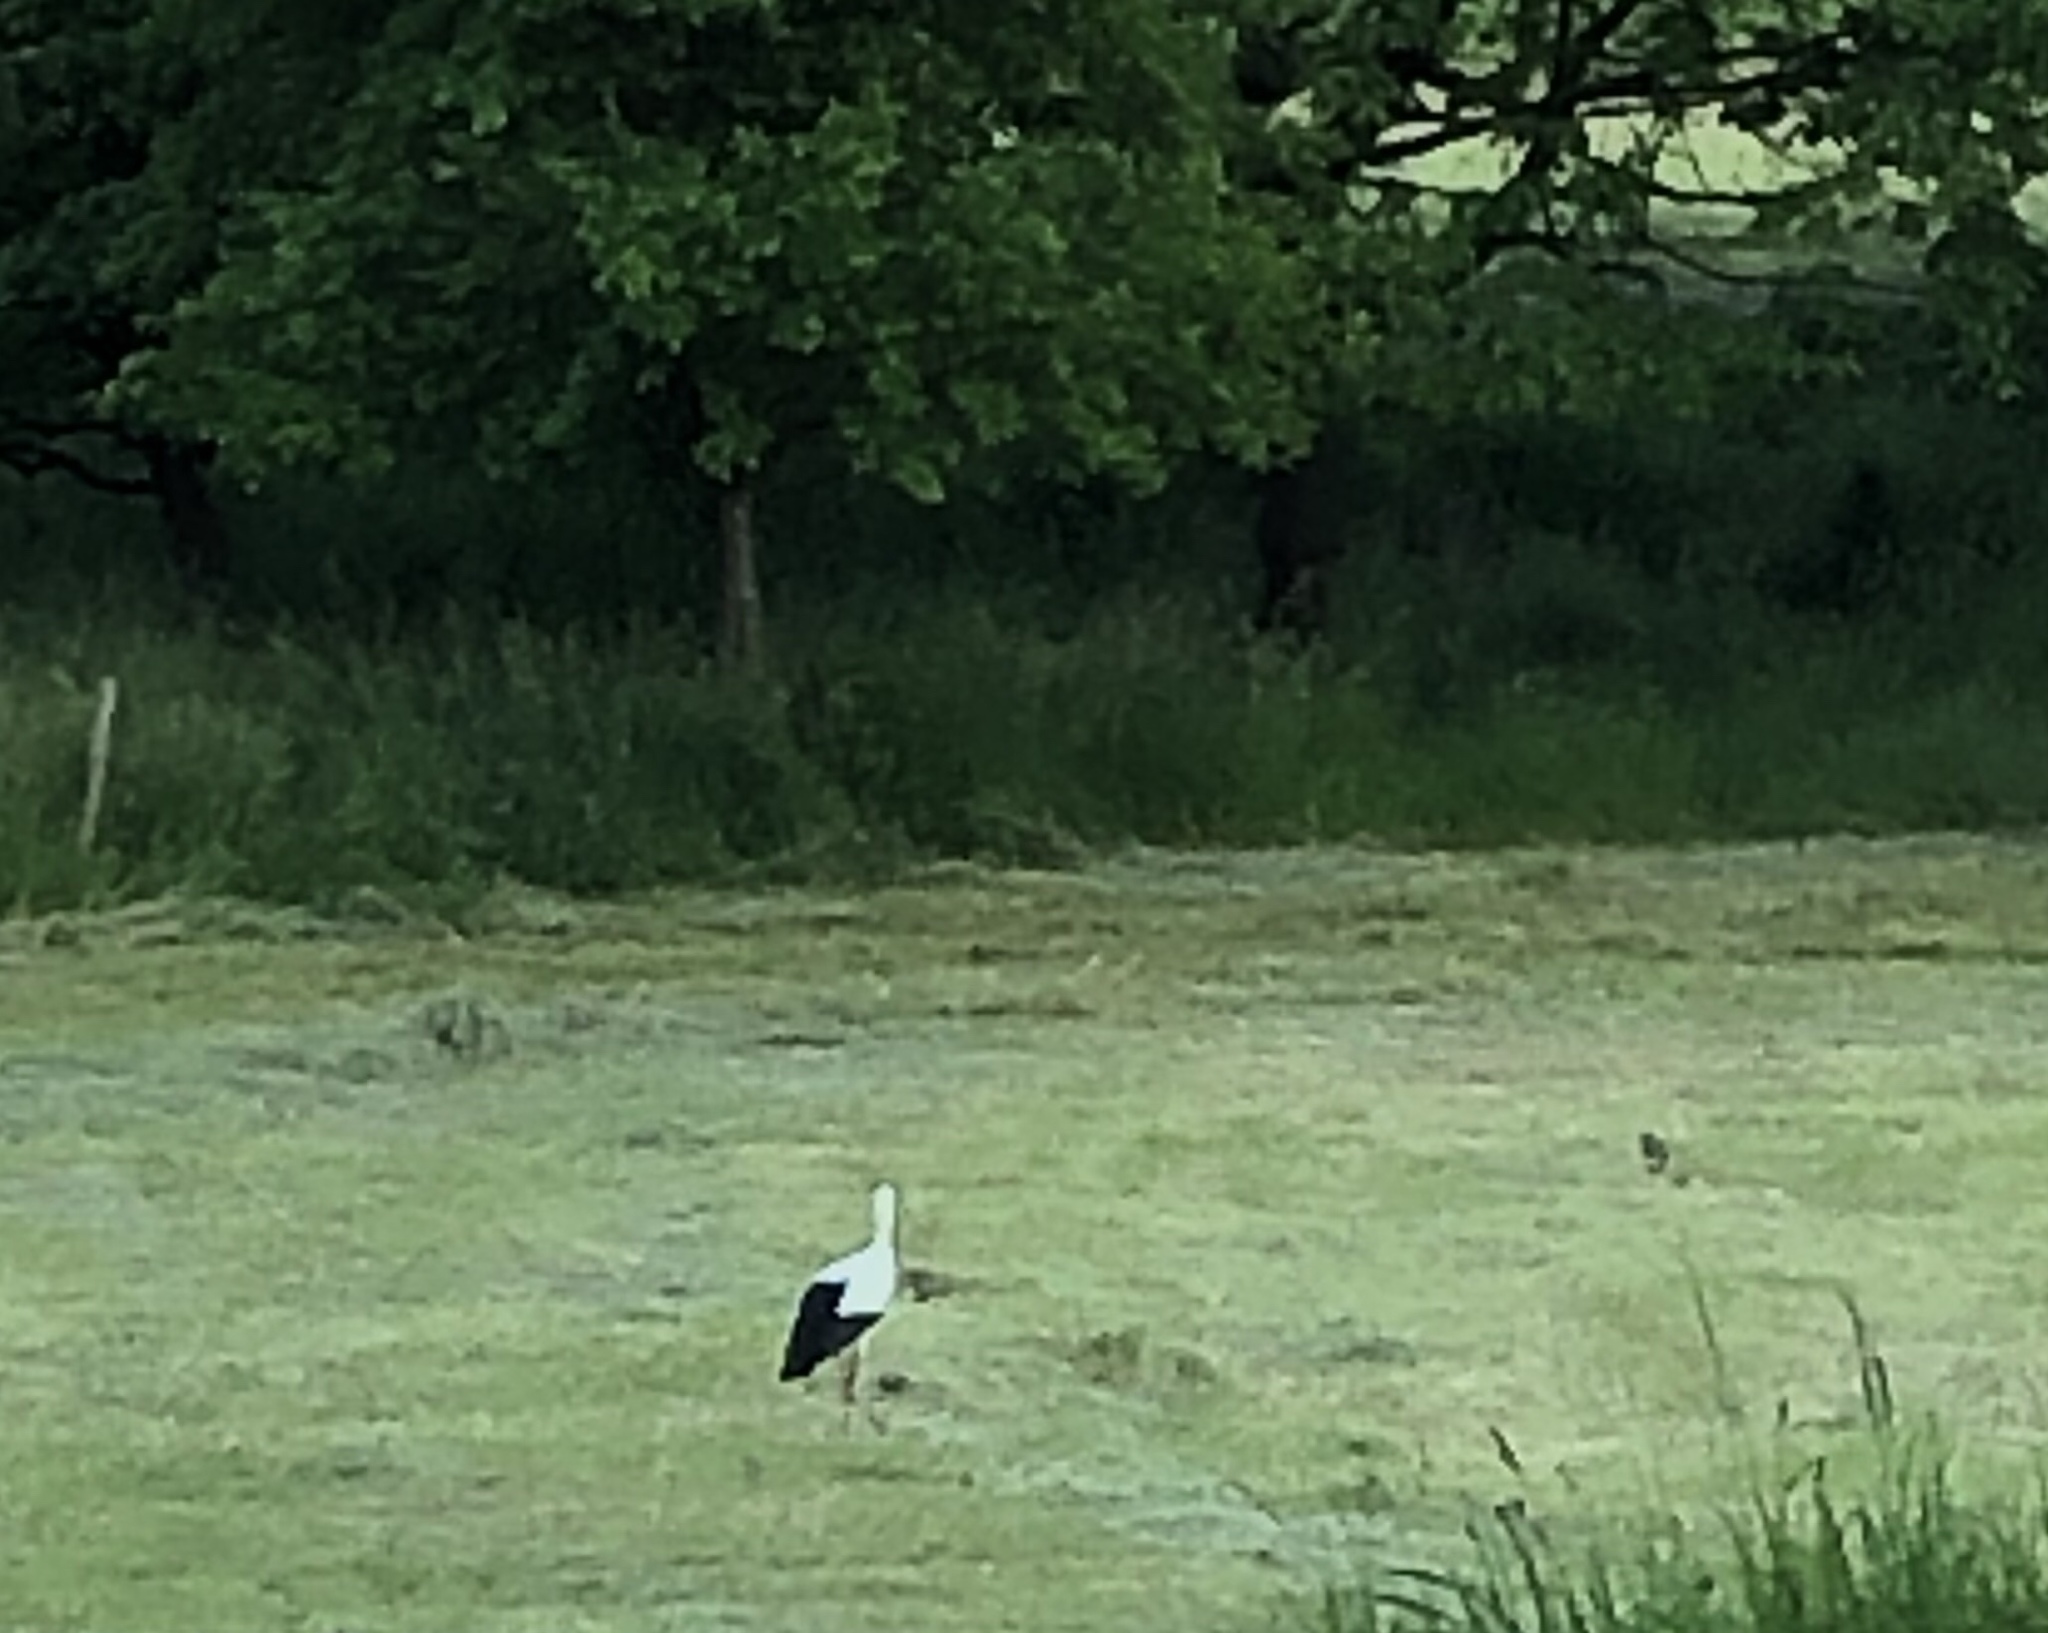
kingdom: Animalia
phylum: Chordata
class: Aves
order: Ciconiiformes
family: Ciconiidae
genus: Ciconia
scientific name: Ciconia ciconia
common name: White stork
